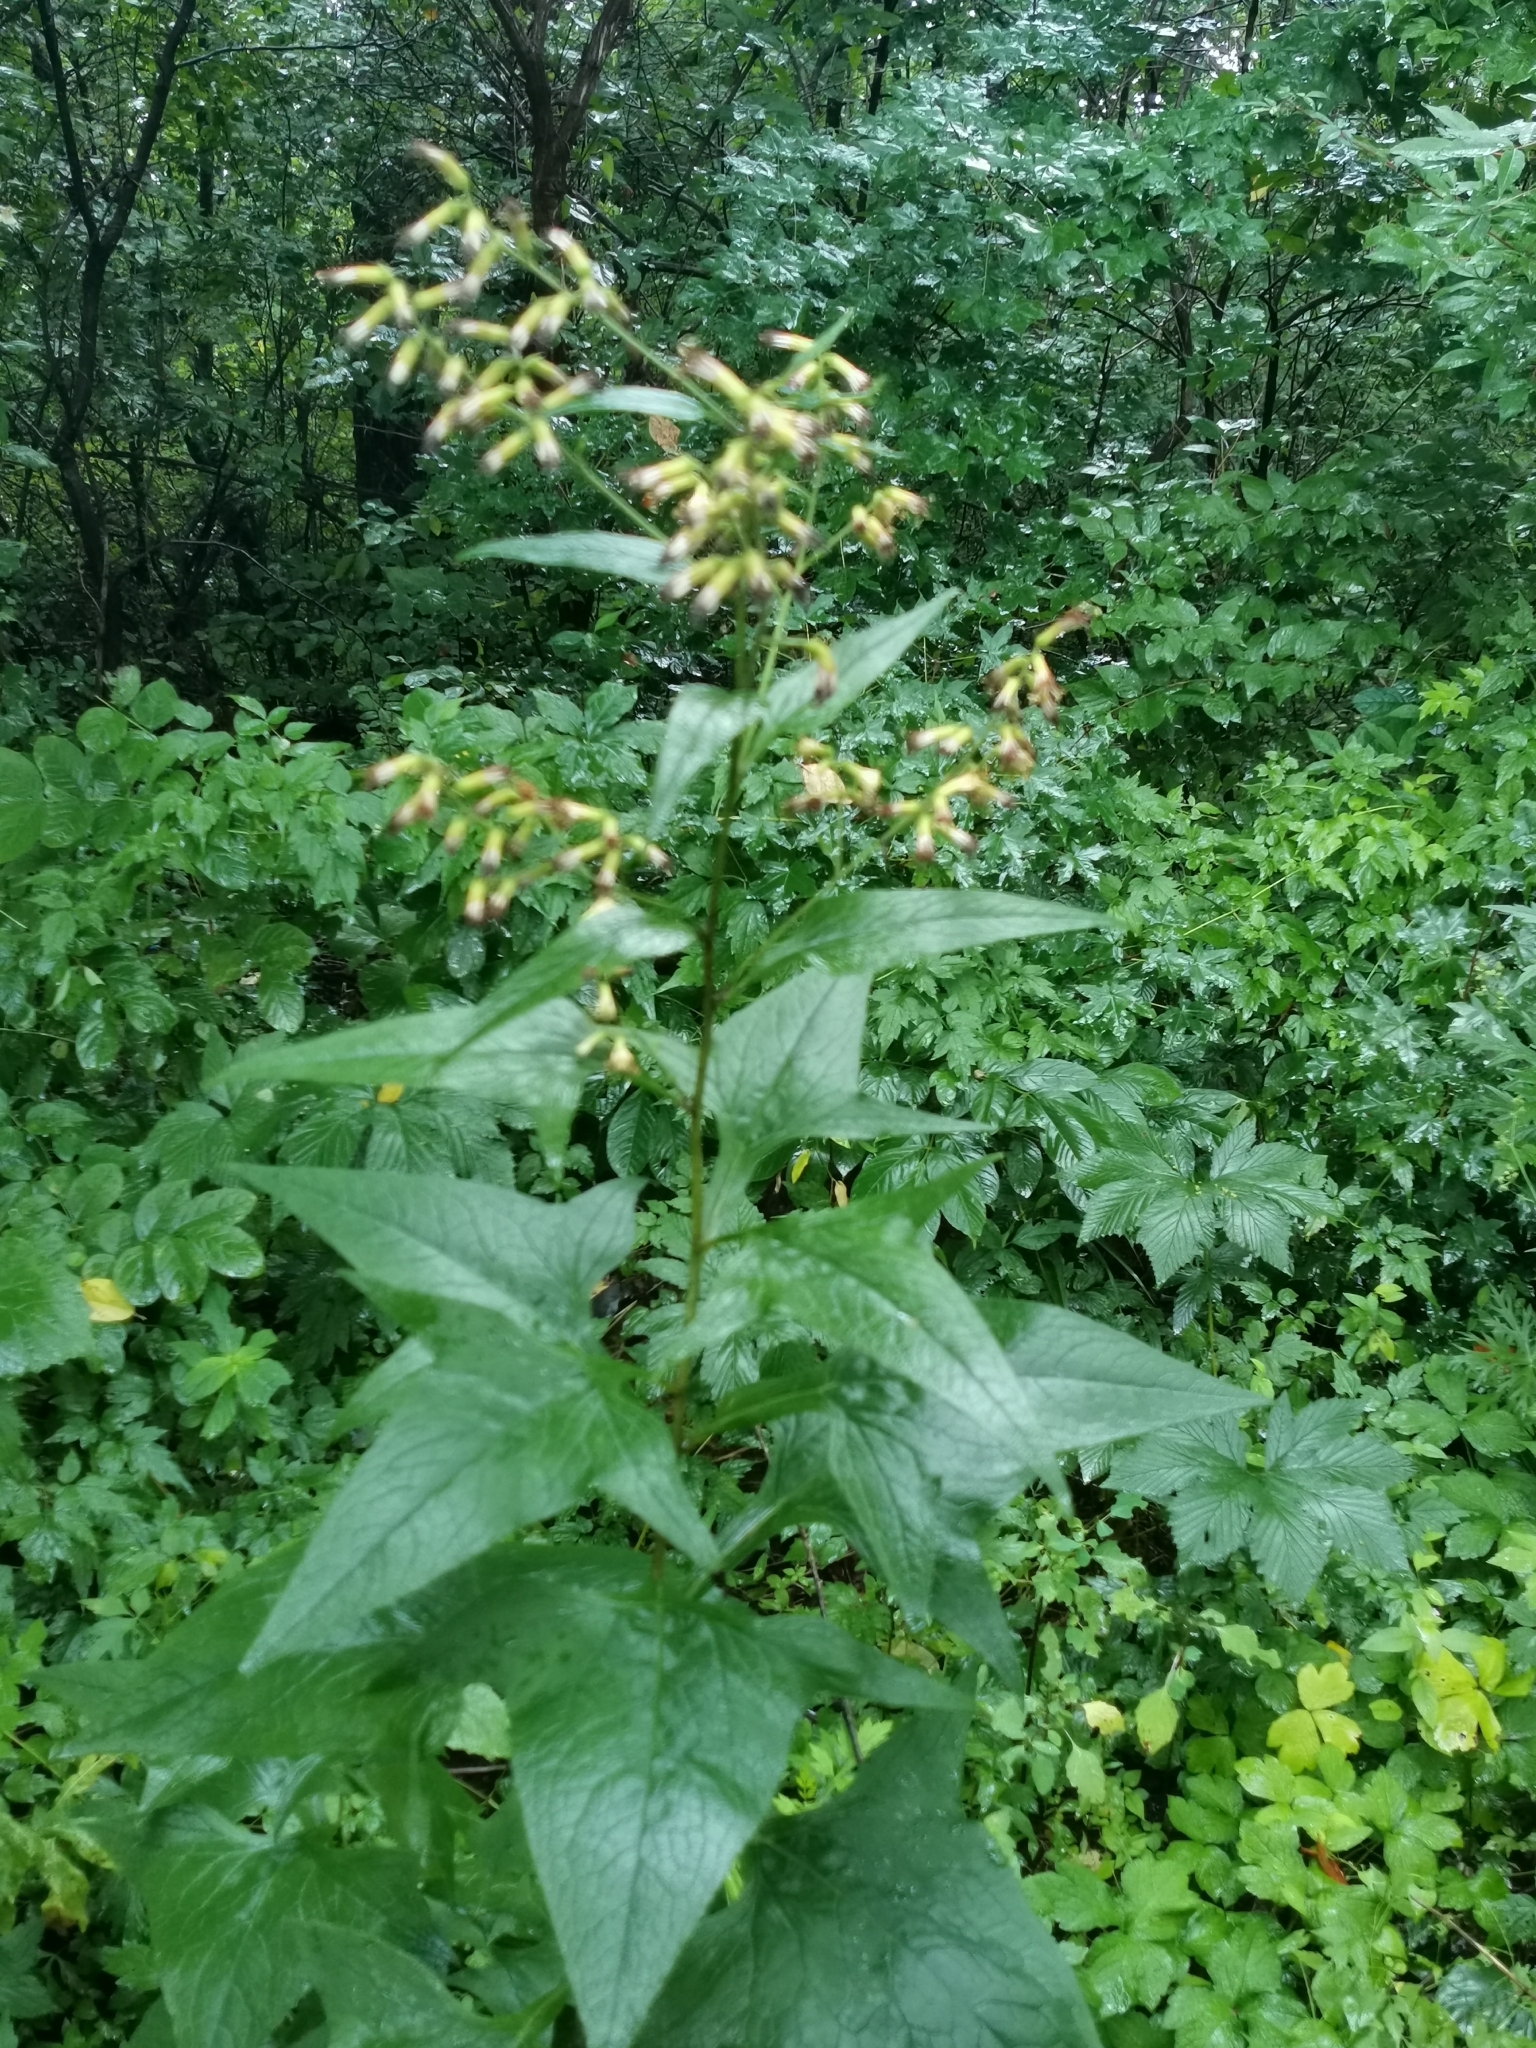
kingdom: Plantae
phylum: Tracheophyta
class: Magnoliopsida
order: Asterales
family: Asteraceae
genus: Parasenecio
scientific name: Parasenecio hastatus
